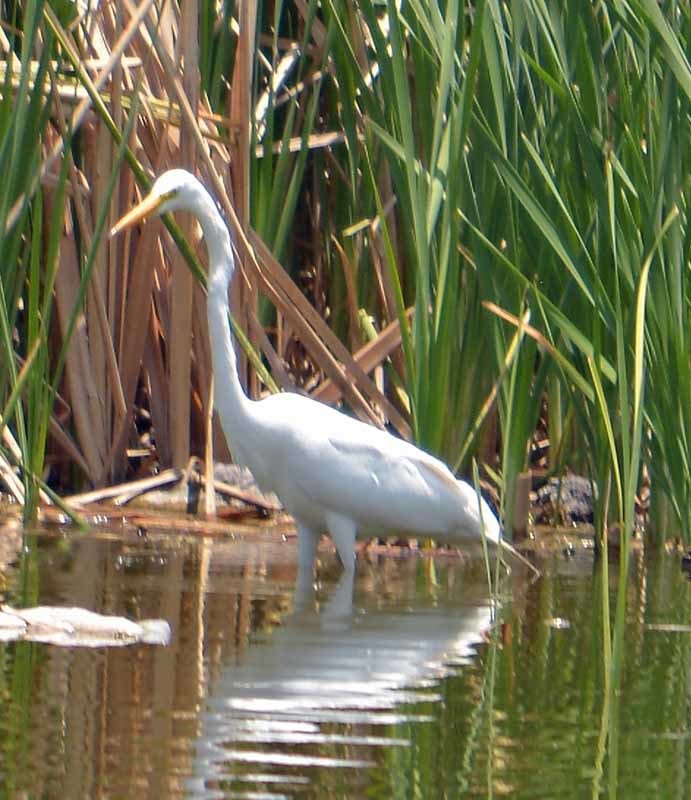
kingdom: Animalia
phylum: Chordata
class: Aves
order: Pelecaniformes
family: Ardeidae
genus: Ardea
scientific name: Ardea alba
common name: Great egret
